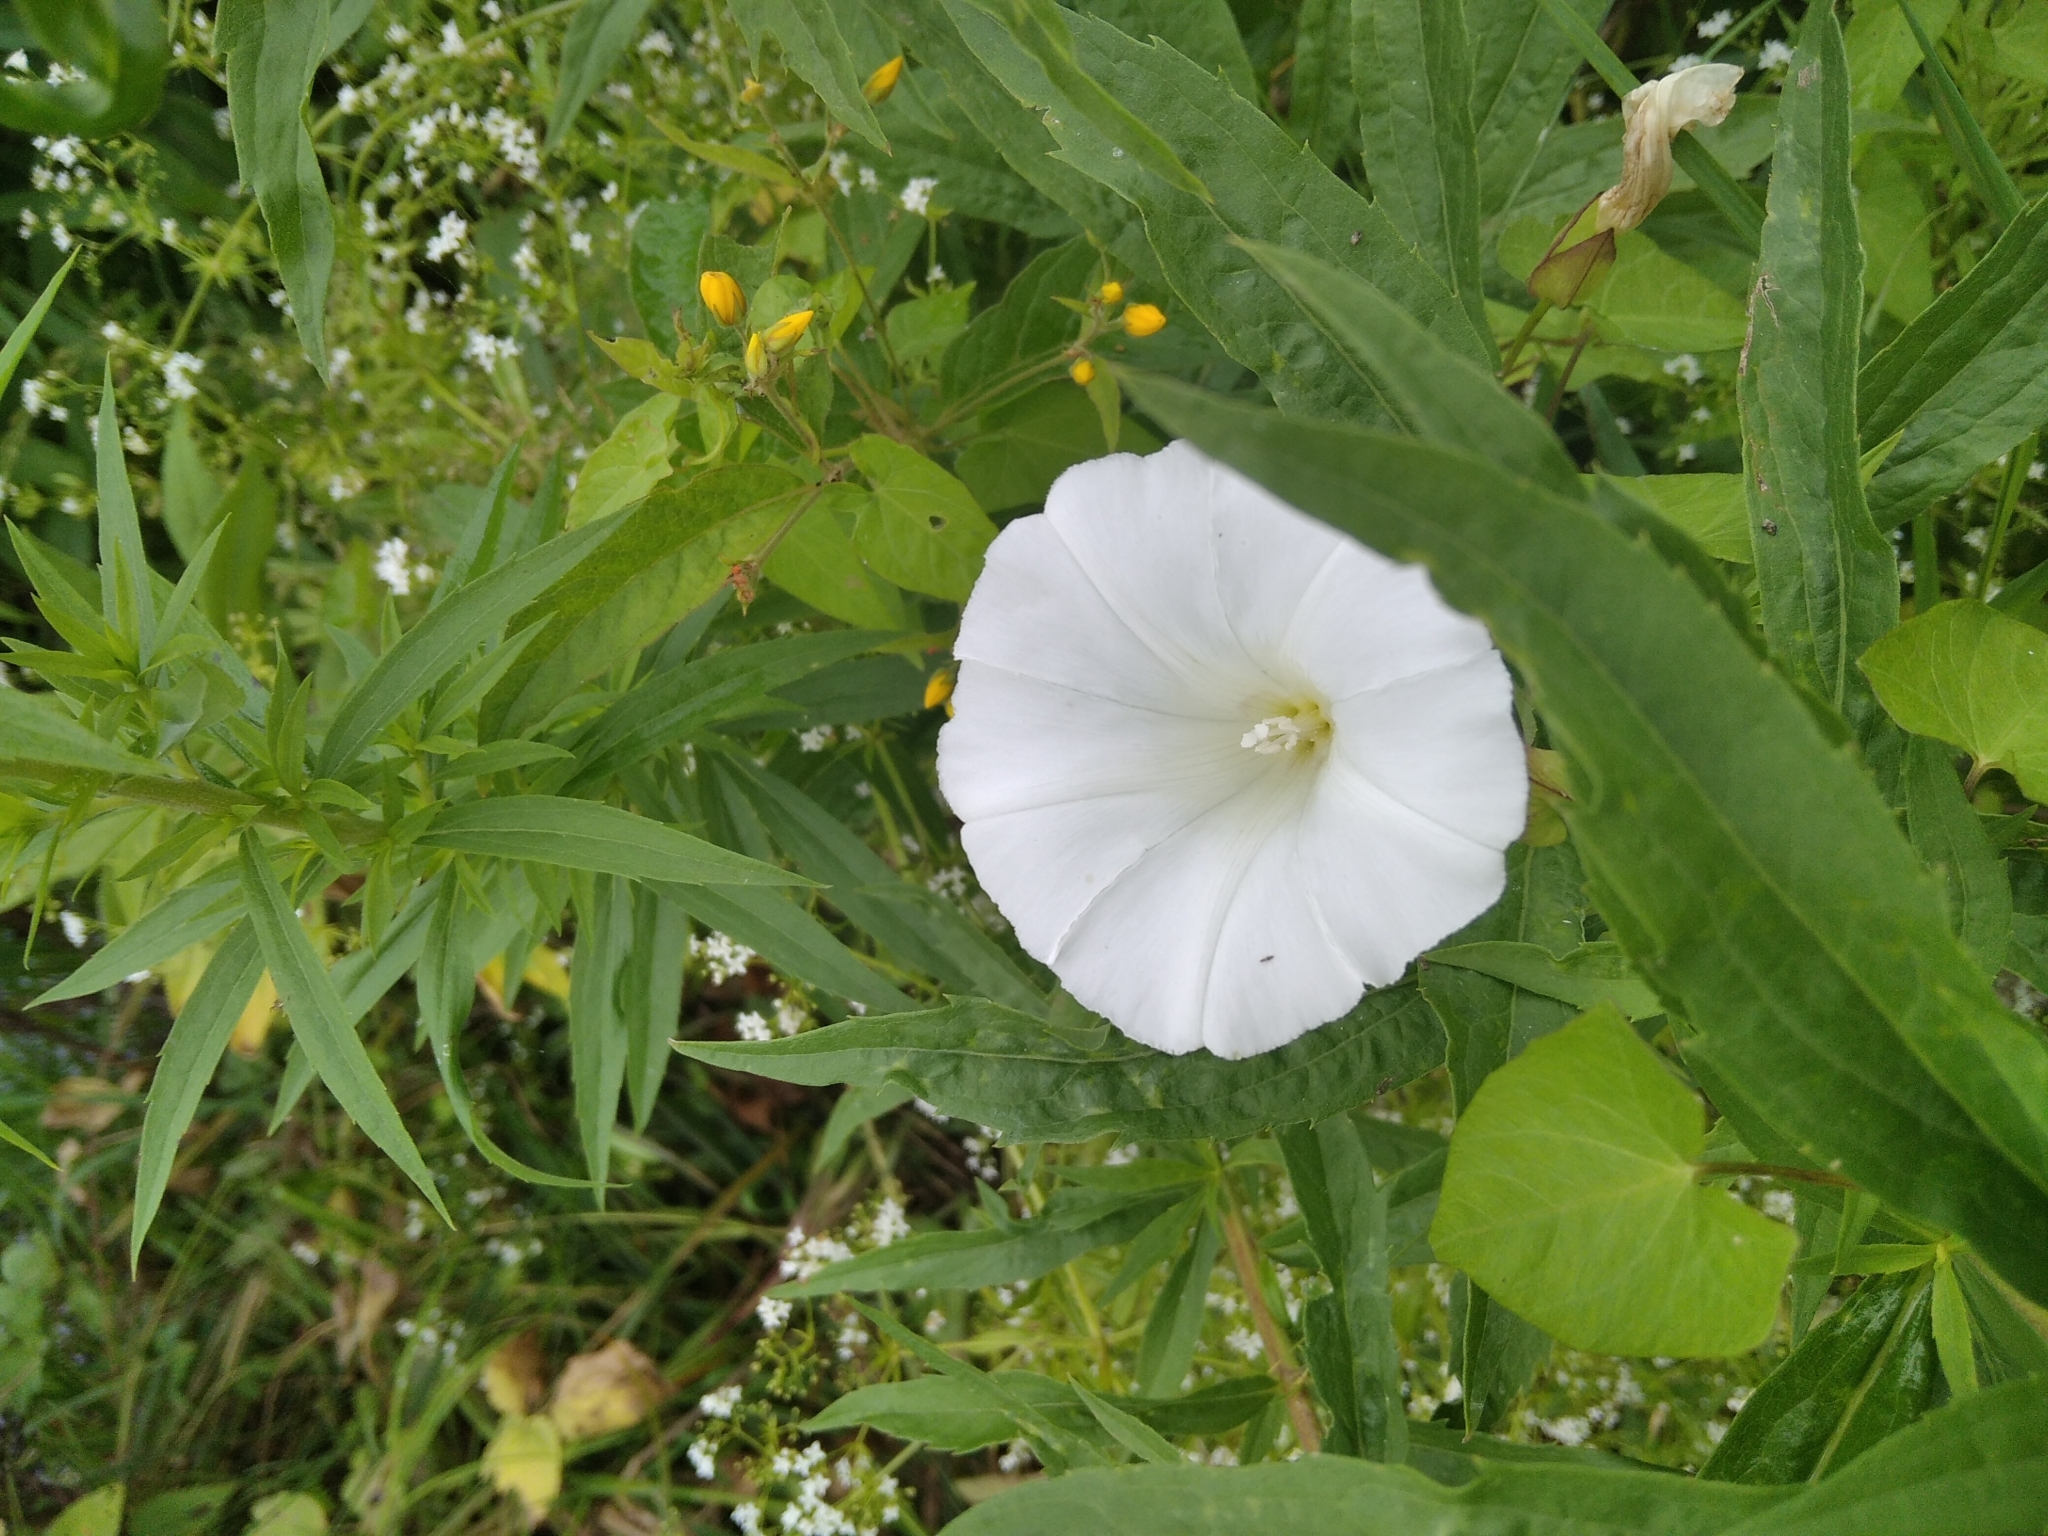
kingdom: Plantae
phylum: Tracheophyta
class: Magnoliopsida
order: Solanales
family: Convolvulaceae
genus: Calystegia
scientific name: Calystegia sepium
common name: Hedge bindweed
